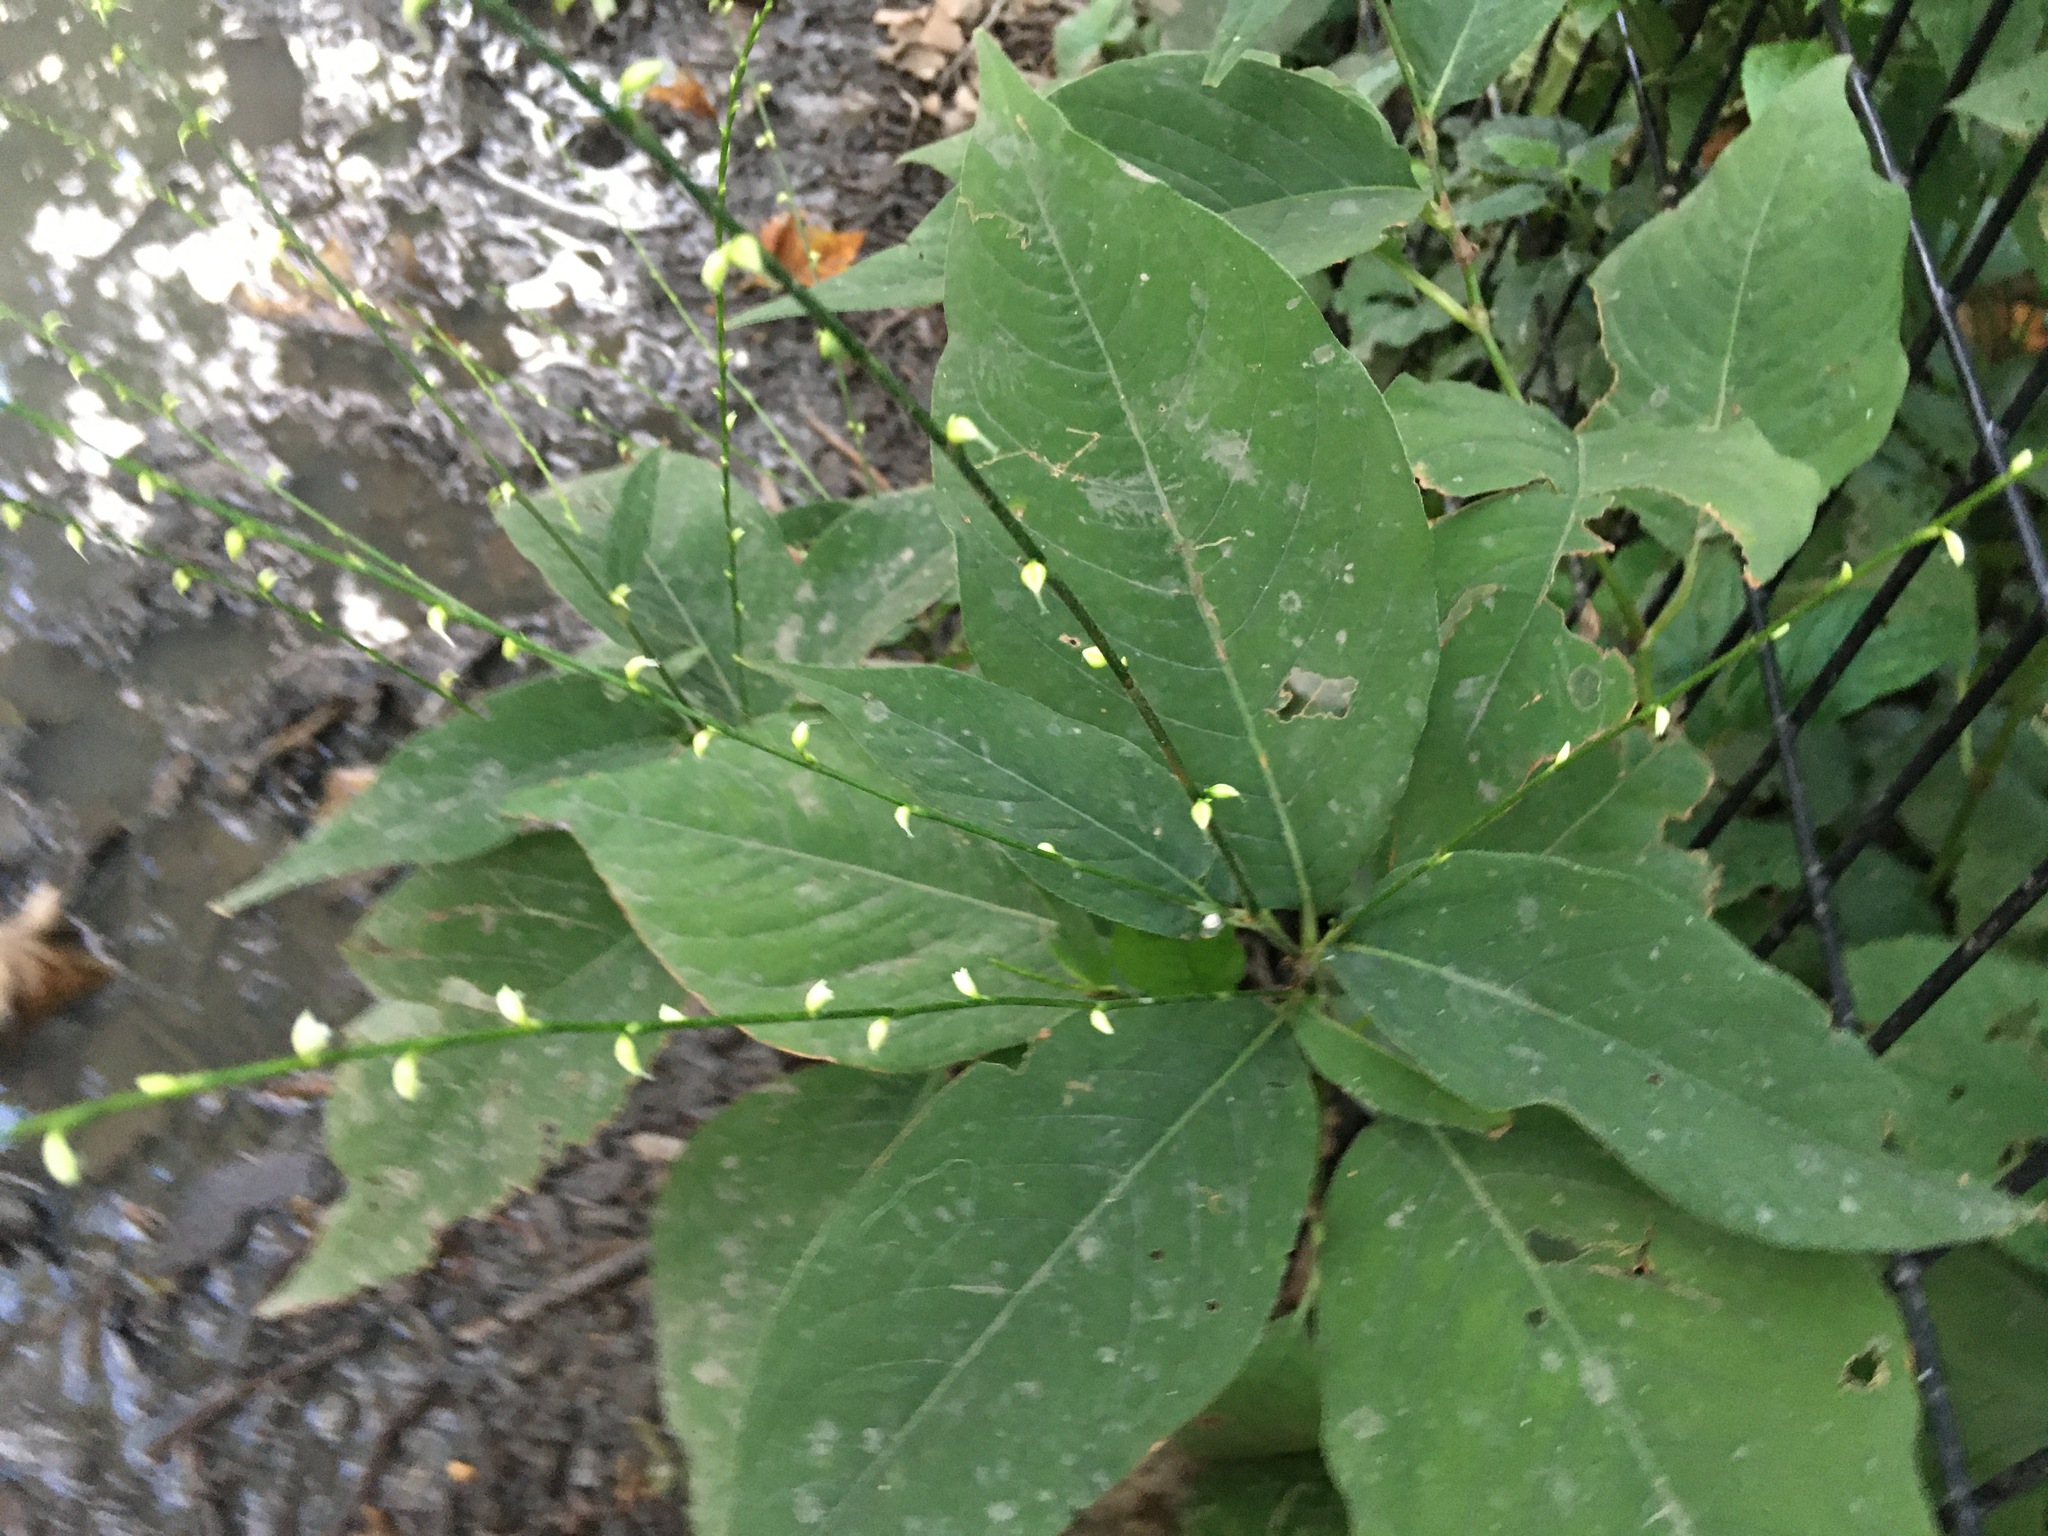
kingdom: Plantae
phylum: Tracheophyta
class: Magnoliopsida
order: Caryophyllales
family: Polygonaceae
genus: Persicaria
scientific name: Persicaria virginiana
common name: Jumpseed
